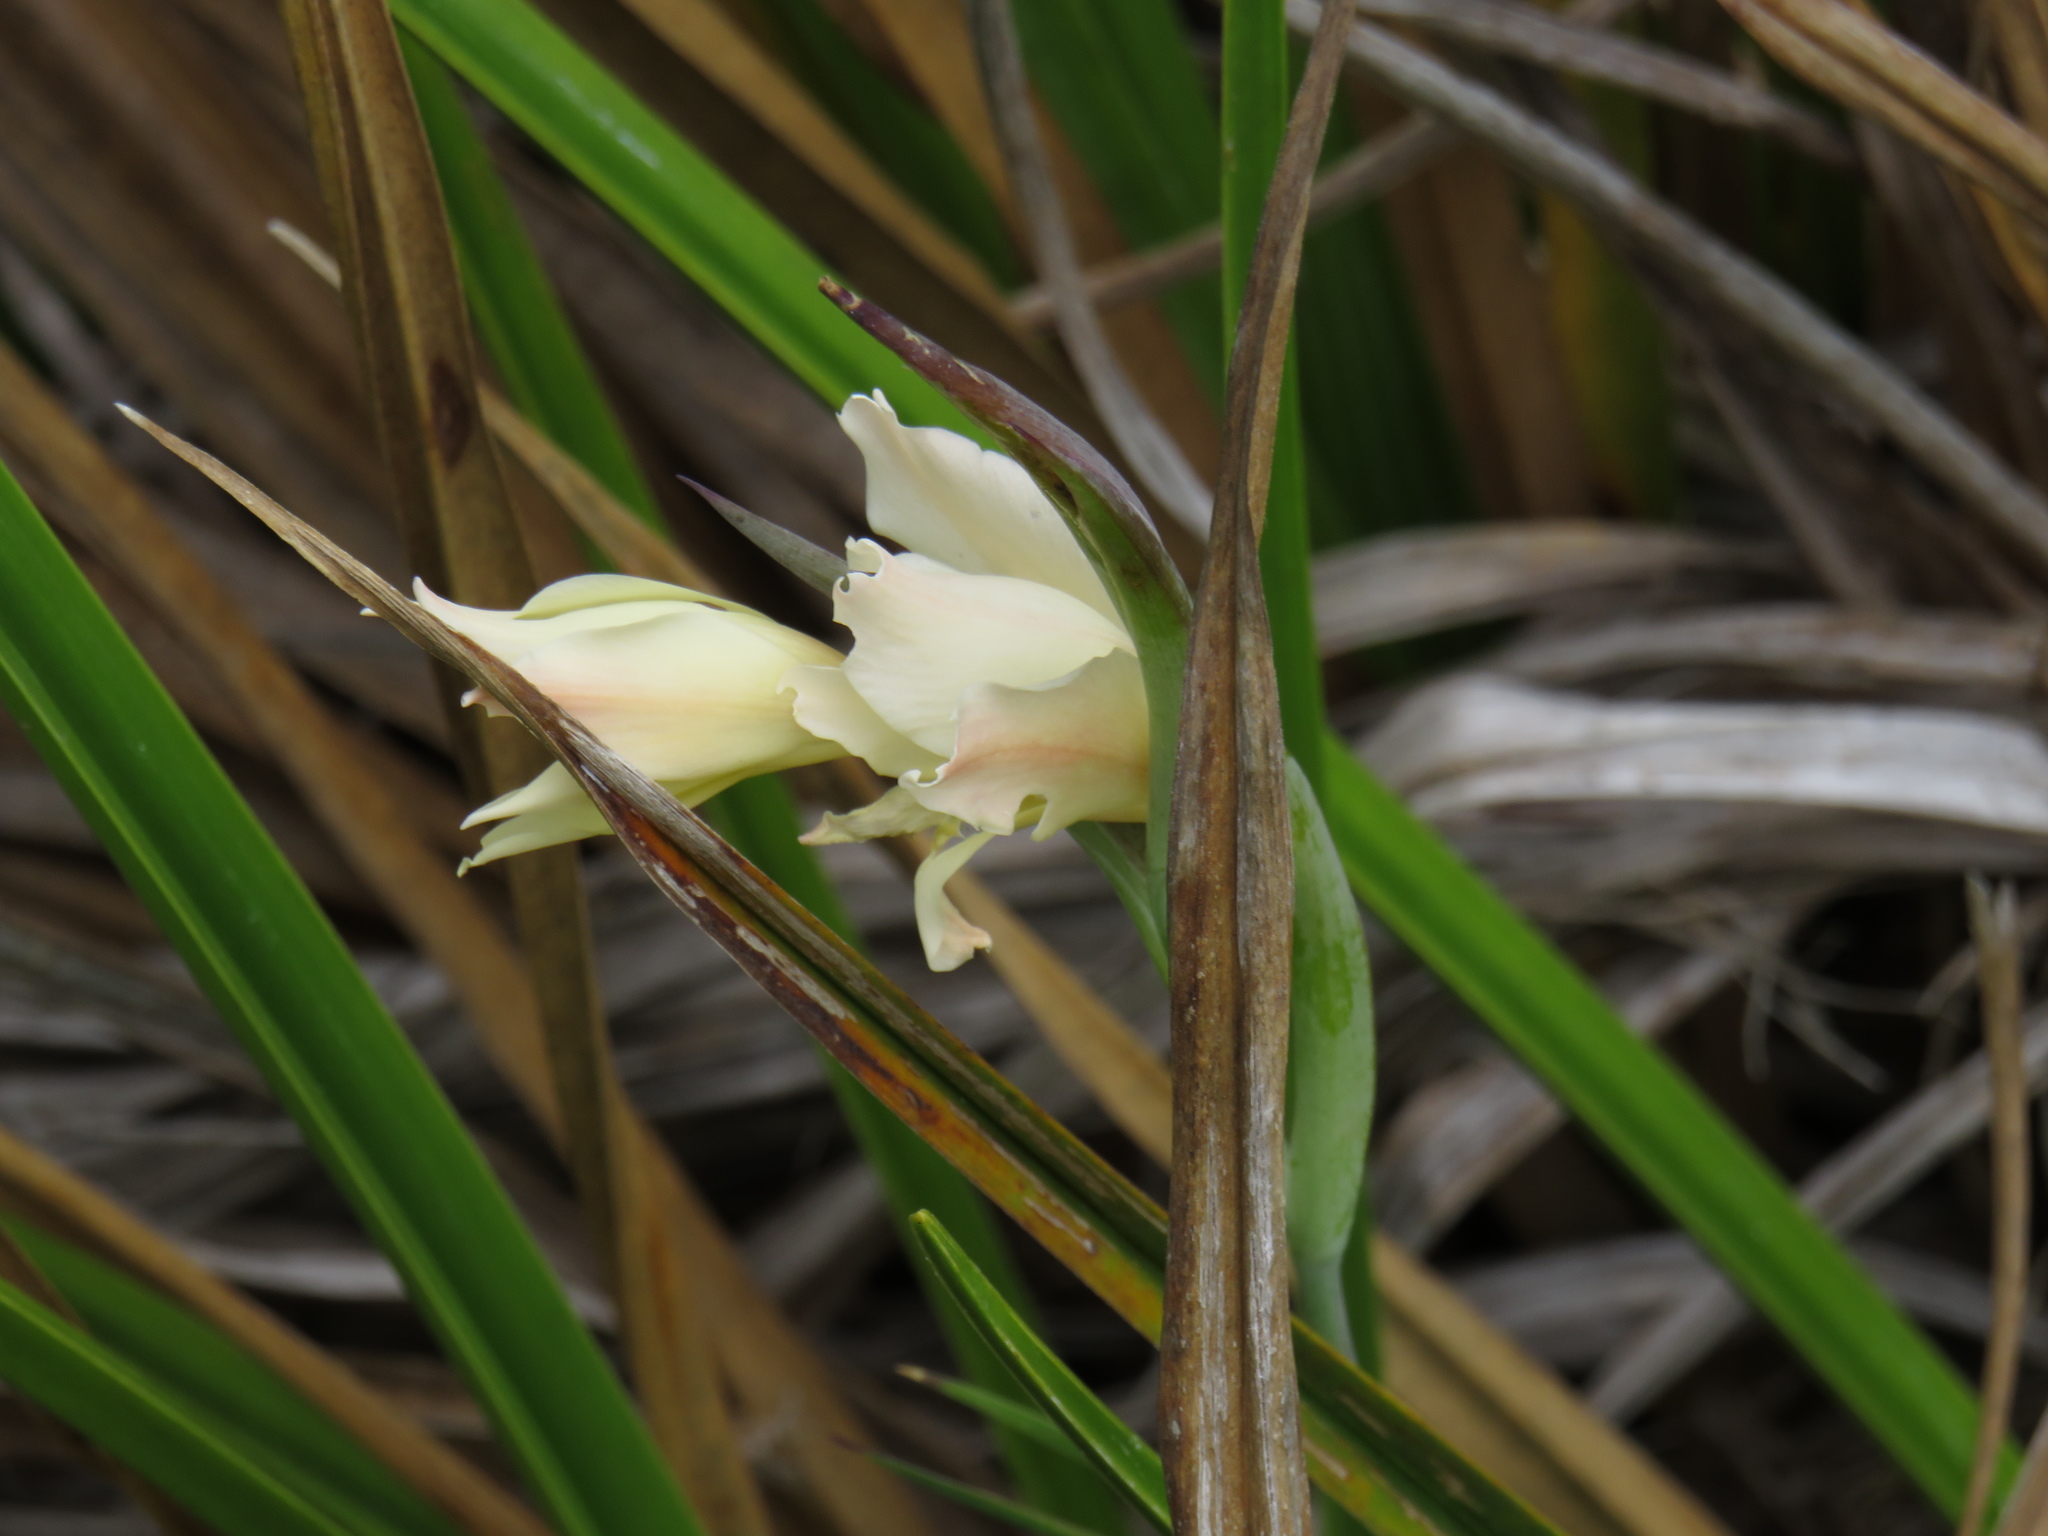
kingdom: Plantae
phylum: Tracheophyta
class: Liliopsida
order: Asparagales
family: Iridaceae
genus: Gladiolus
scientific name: Gladiolus undulatus
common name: Large painted-lady
